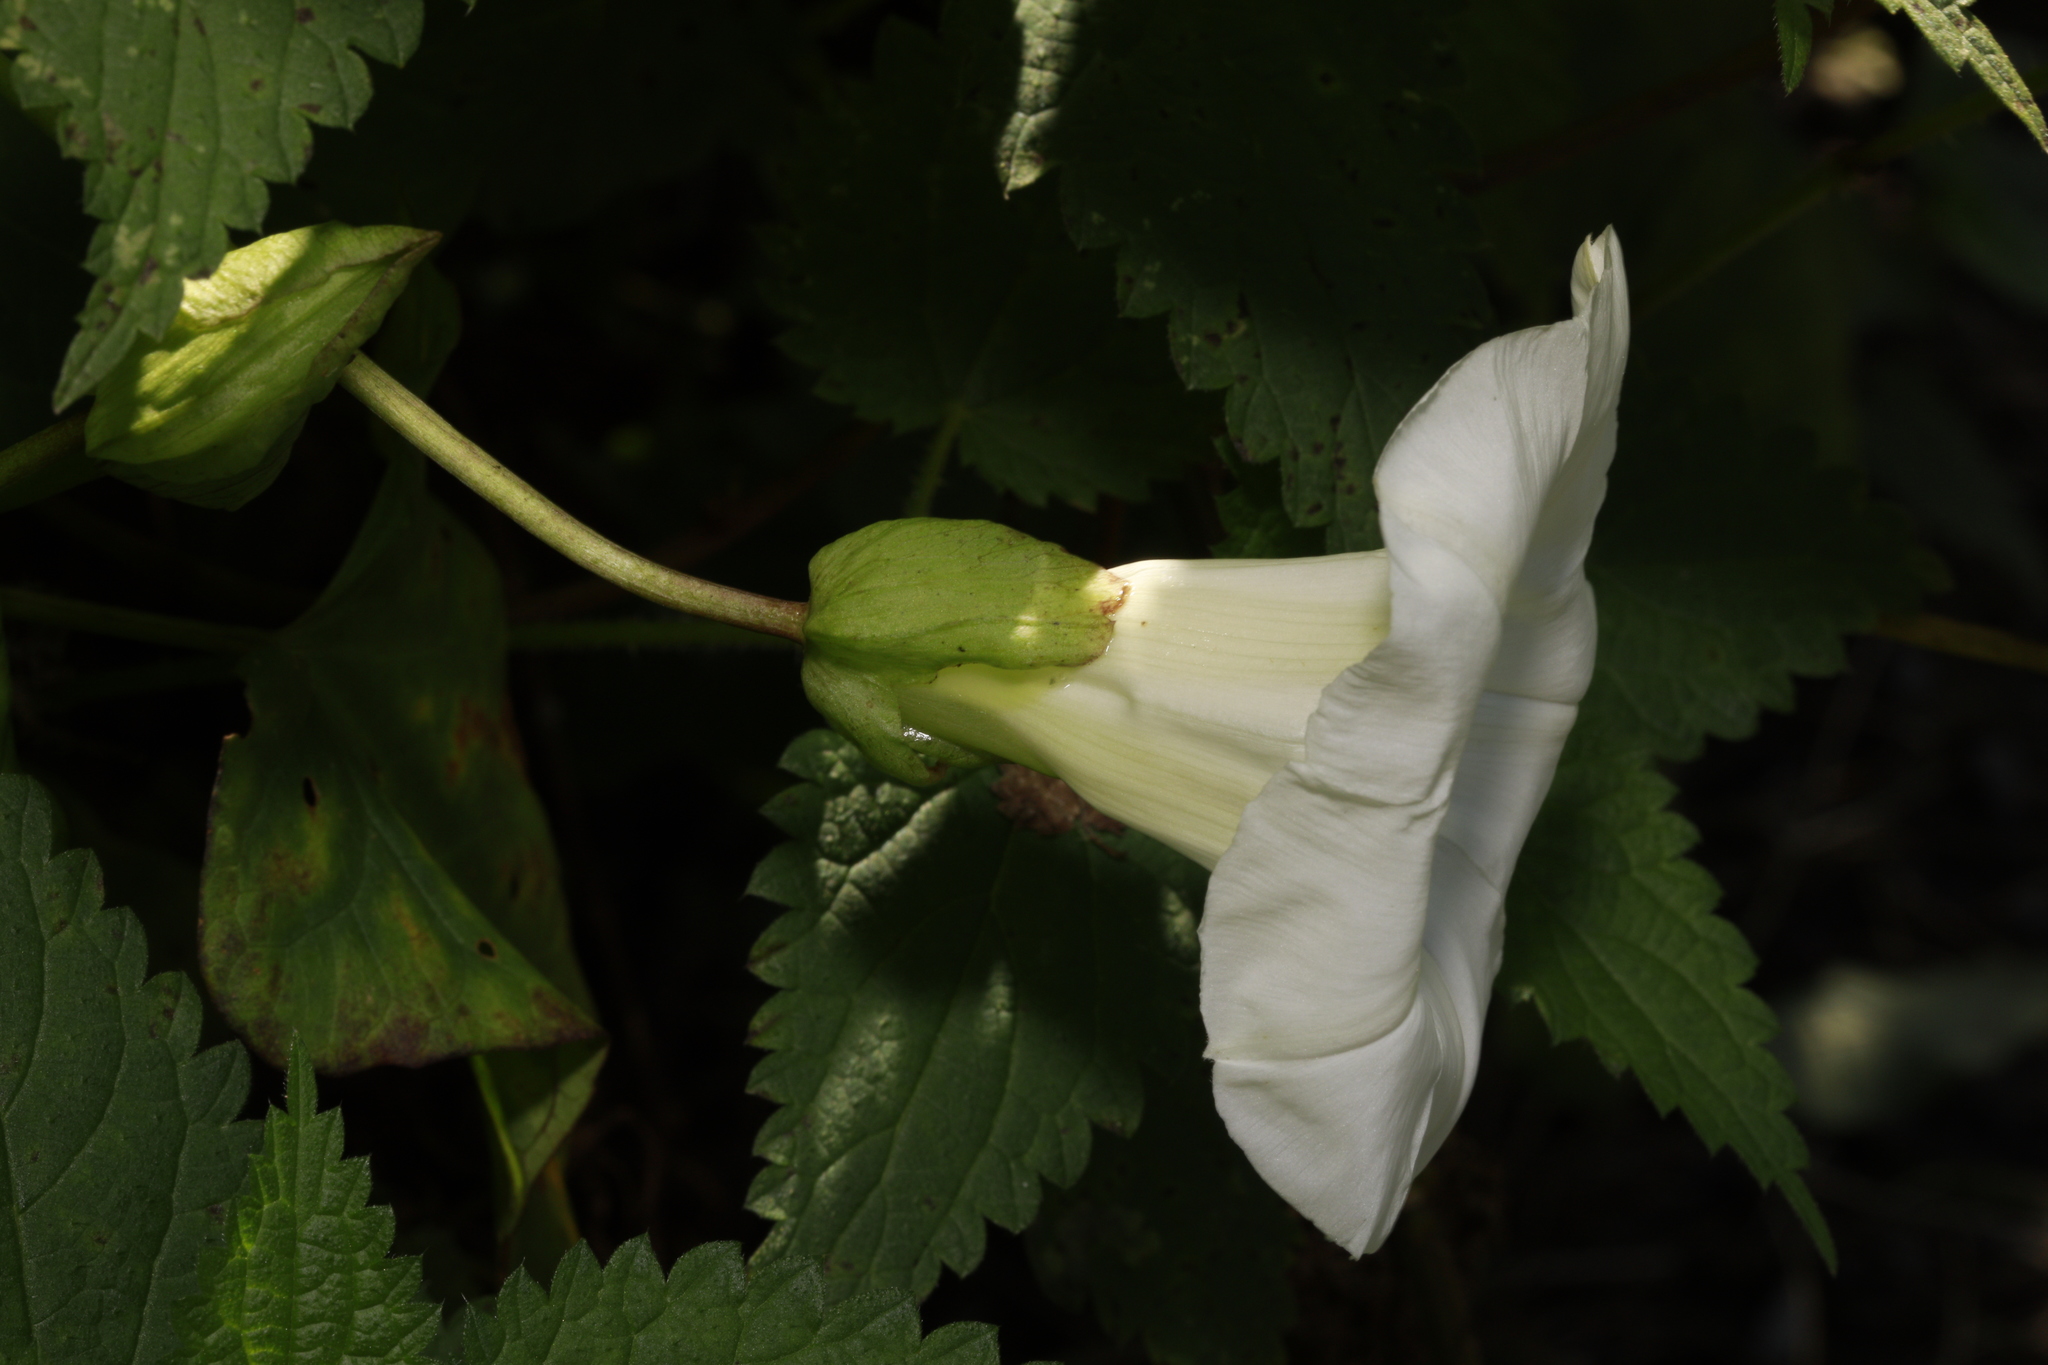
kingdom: Plantae
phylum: Tracheophyta
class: Magnoliopsida
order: Solanales
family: Convolvulaceae
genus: Calystegia
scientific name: Calystegia silvatica
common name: Large bindweed
